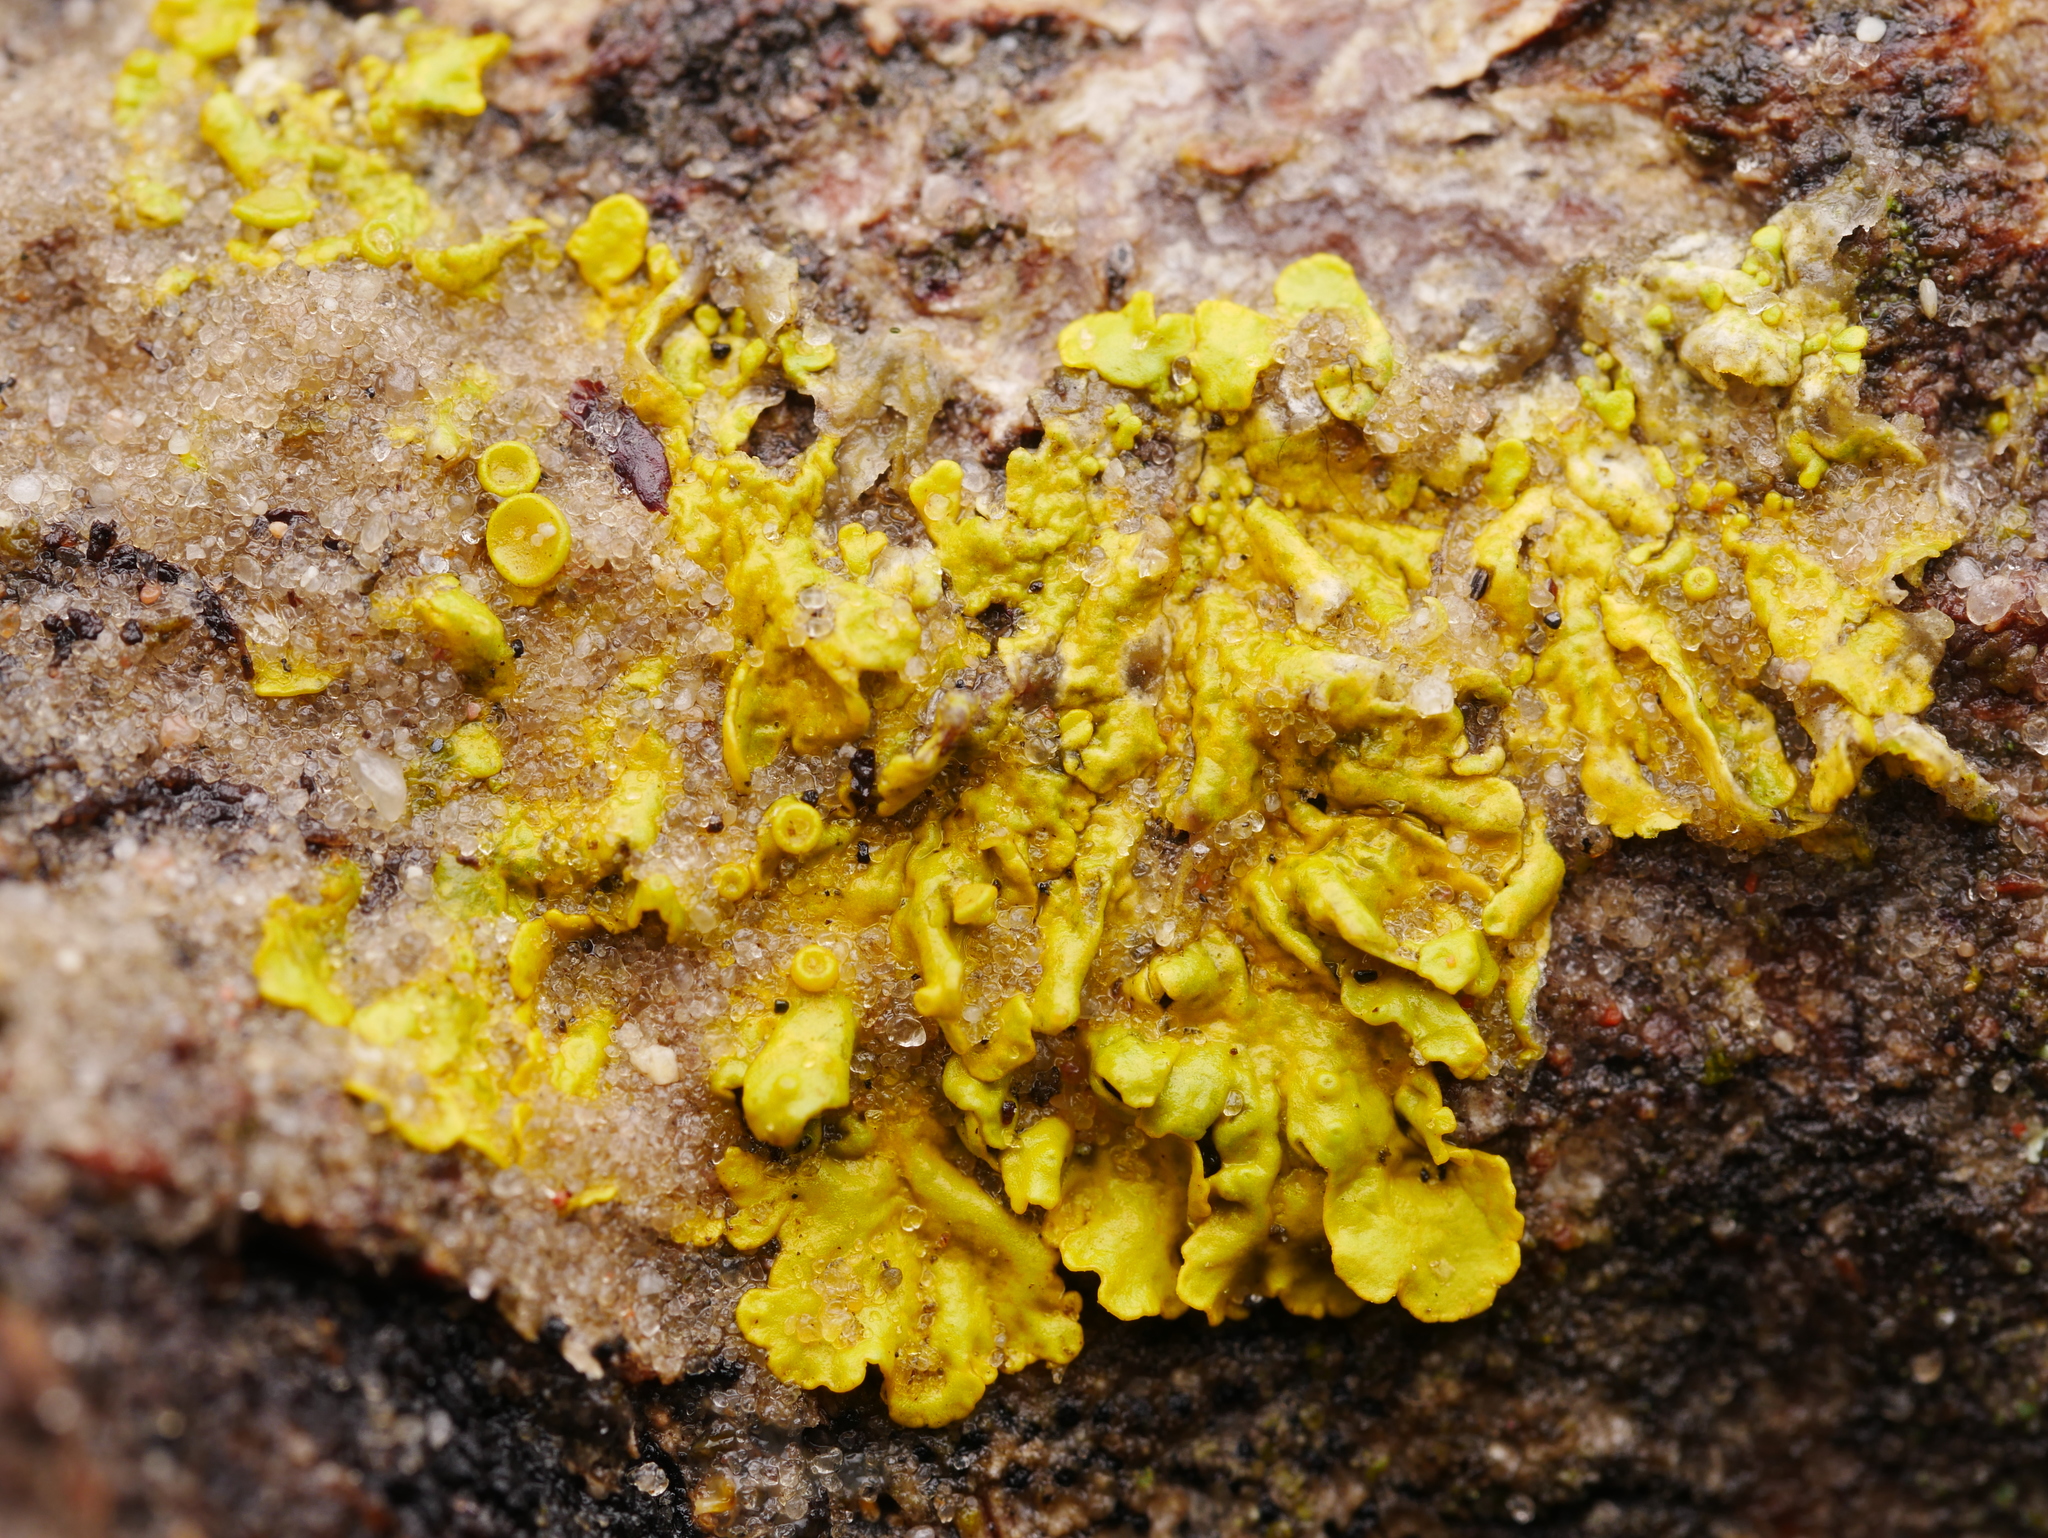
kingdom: Fungi
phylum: Ascomycota
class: Lecanoromycetes
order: Teloschistales
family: Teloschistaceae
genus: Xanthoria
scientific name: Xanthoria parietina
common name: Common orange lichen
